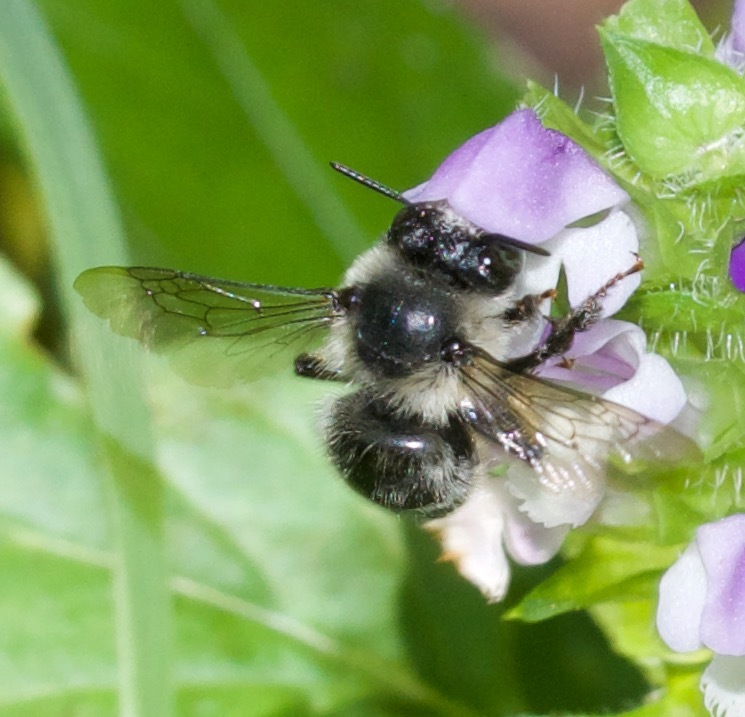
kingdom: Animalia
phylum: Arthropoda
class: Insecta
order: Hymenoptera
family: Apidae
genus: Anthophora
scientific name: Anthophora terminalis
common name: Orange-tipped wood-digger bee
